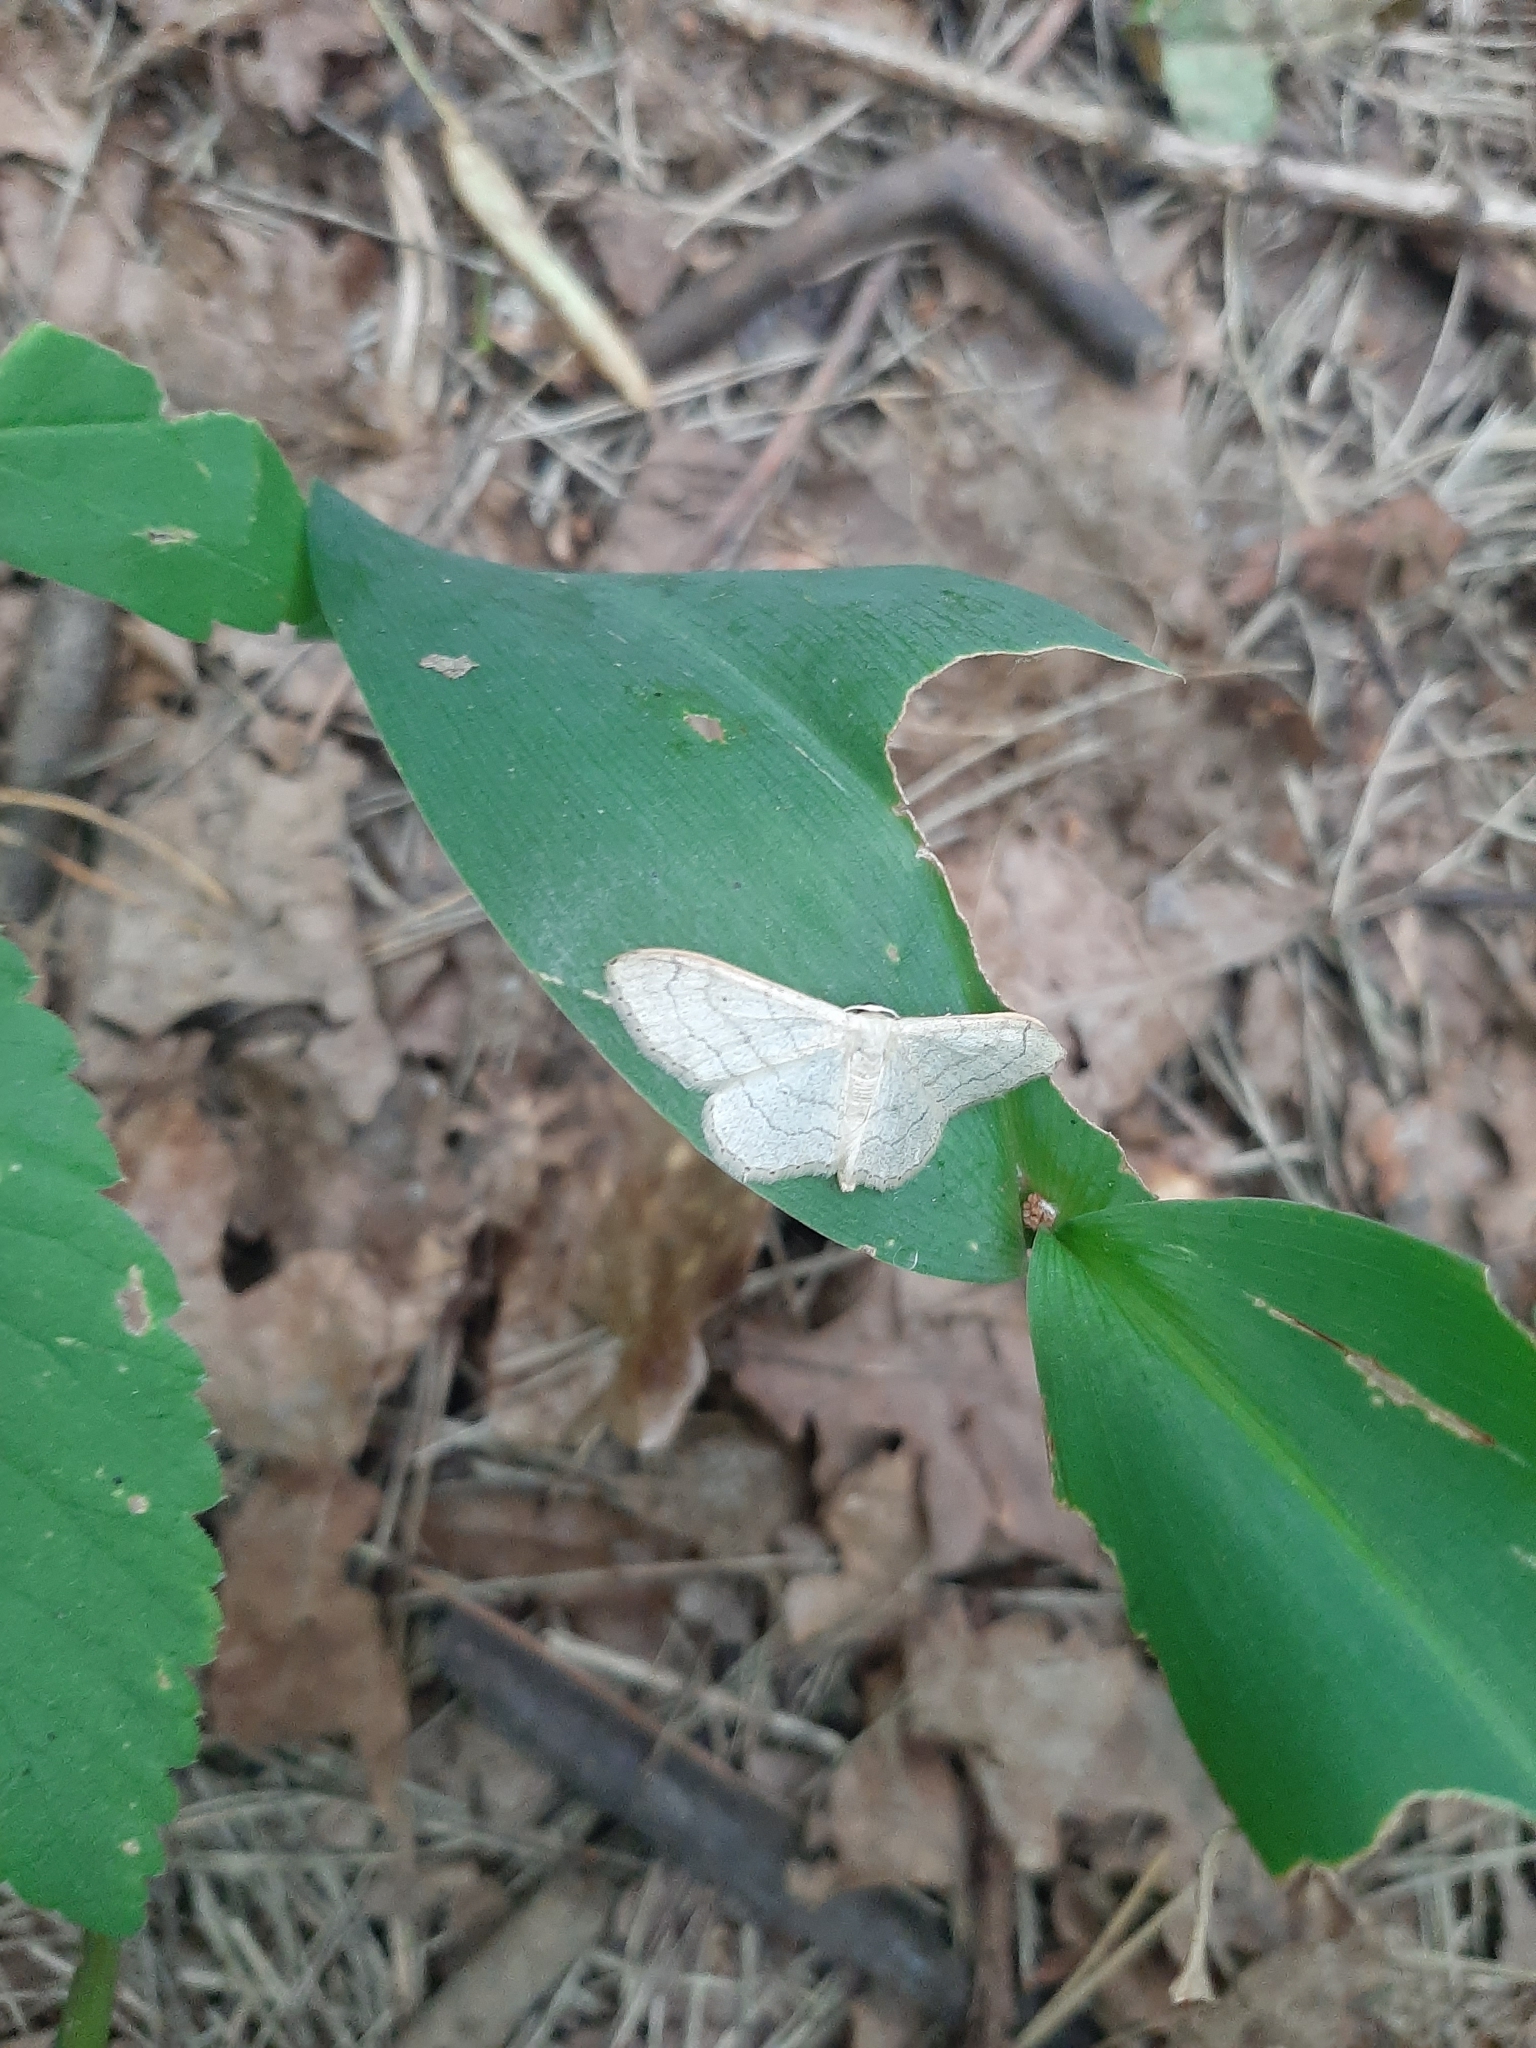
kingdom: Animalia
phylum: Arthropoda
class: Insecta
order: Lepidoptera
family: Geometridae
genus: Idaea
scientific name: Idaea aversata
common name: Riband wave
